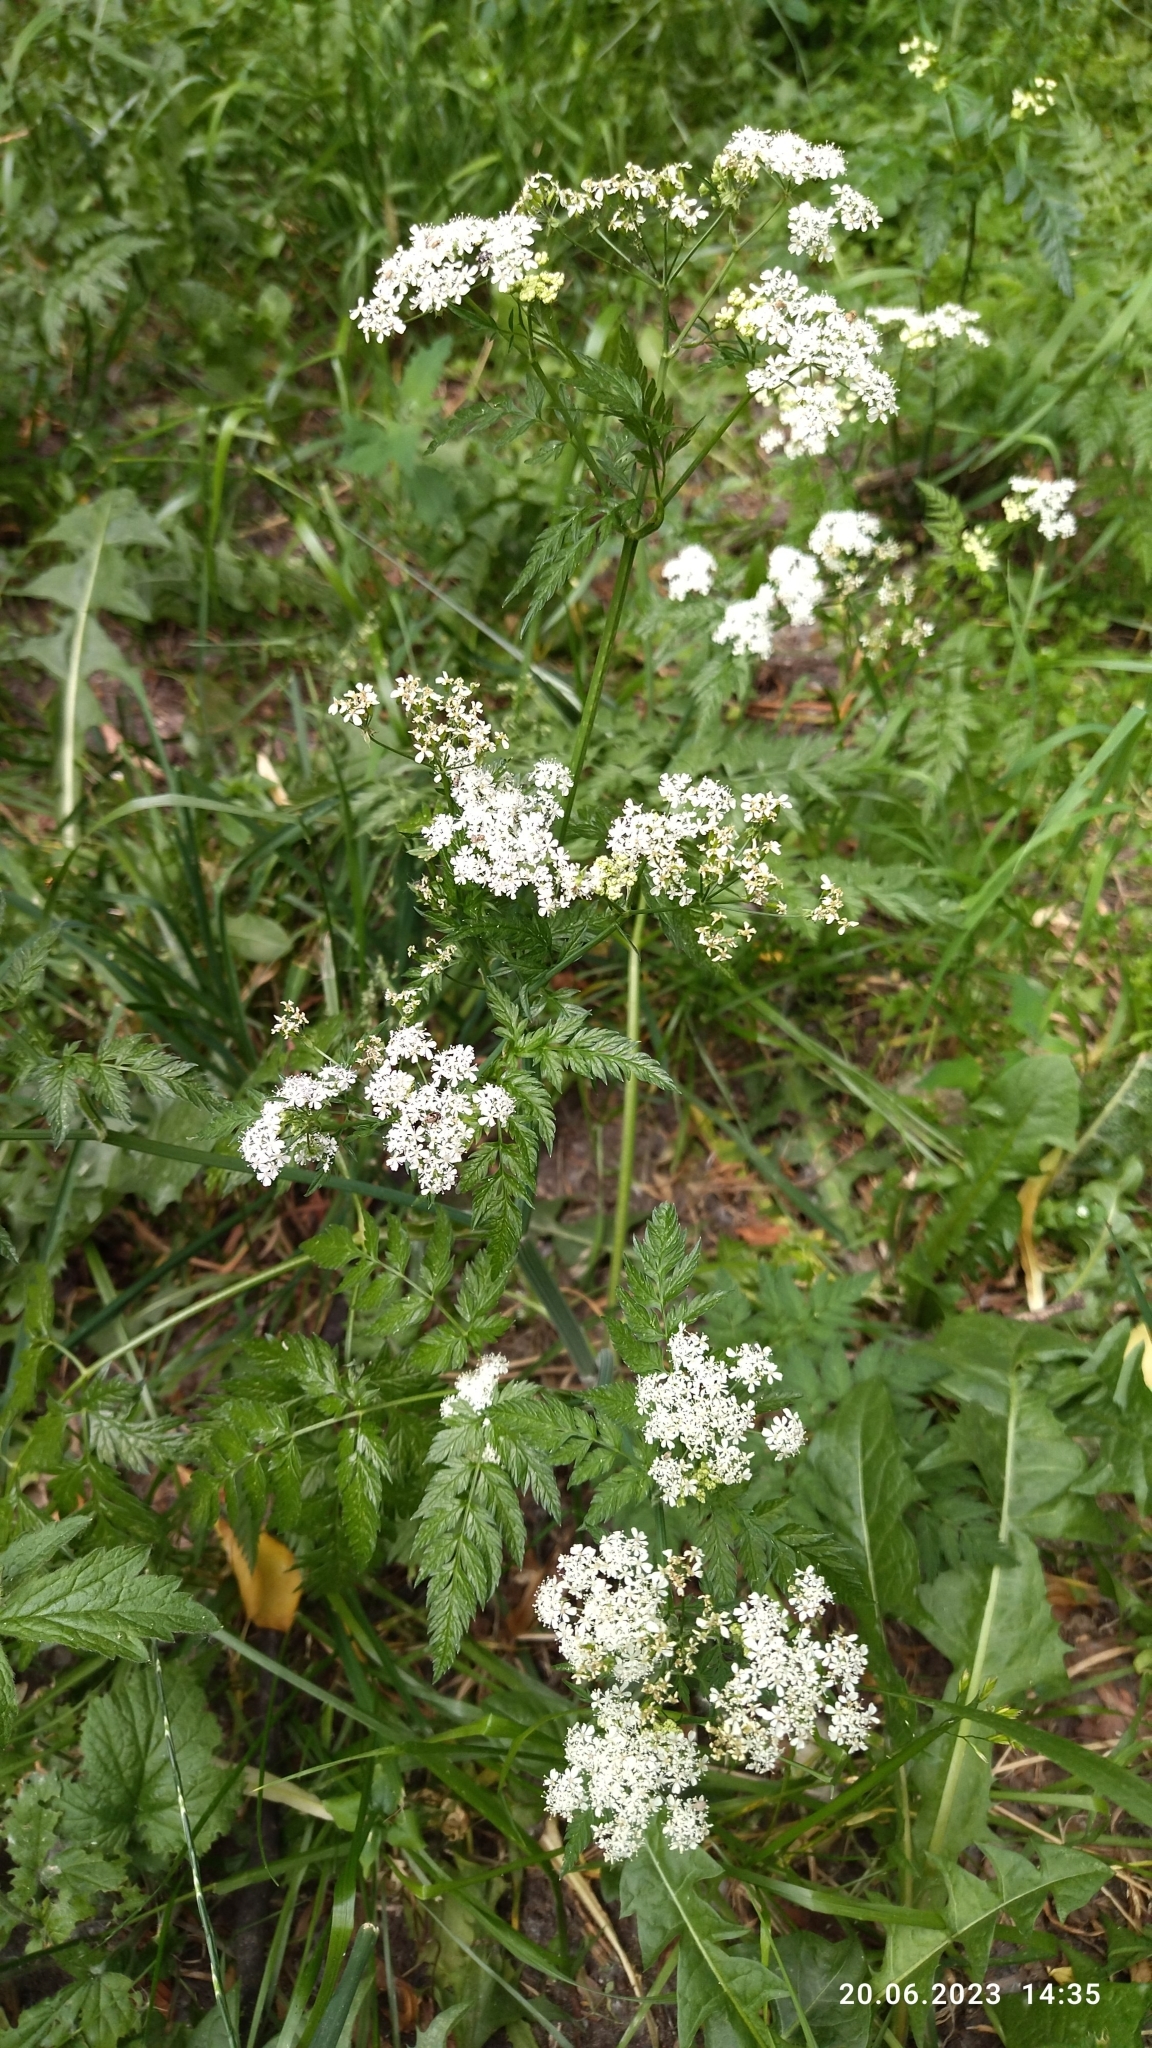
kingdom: Plantae
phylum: Tracheophyta
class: Magnoliopsida
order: Apiales
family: Apiaceae
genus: Anthriscus
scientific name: Anthriscus sylvestris
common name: Cow parsley
